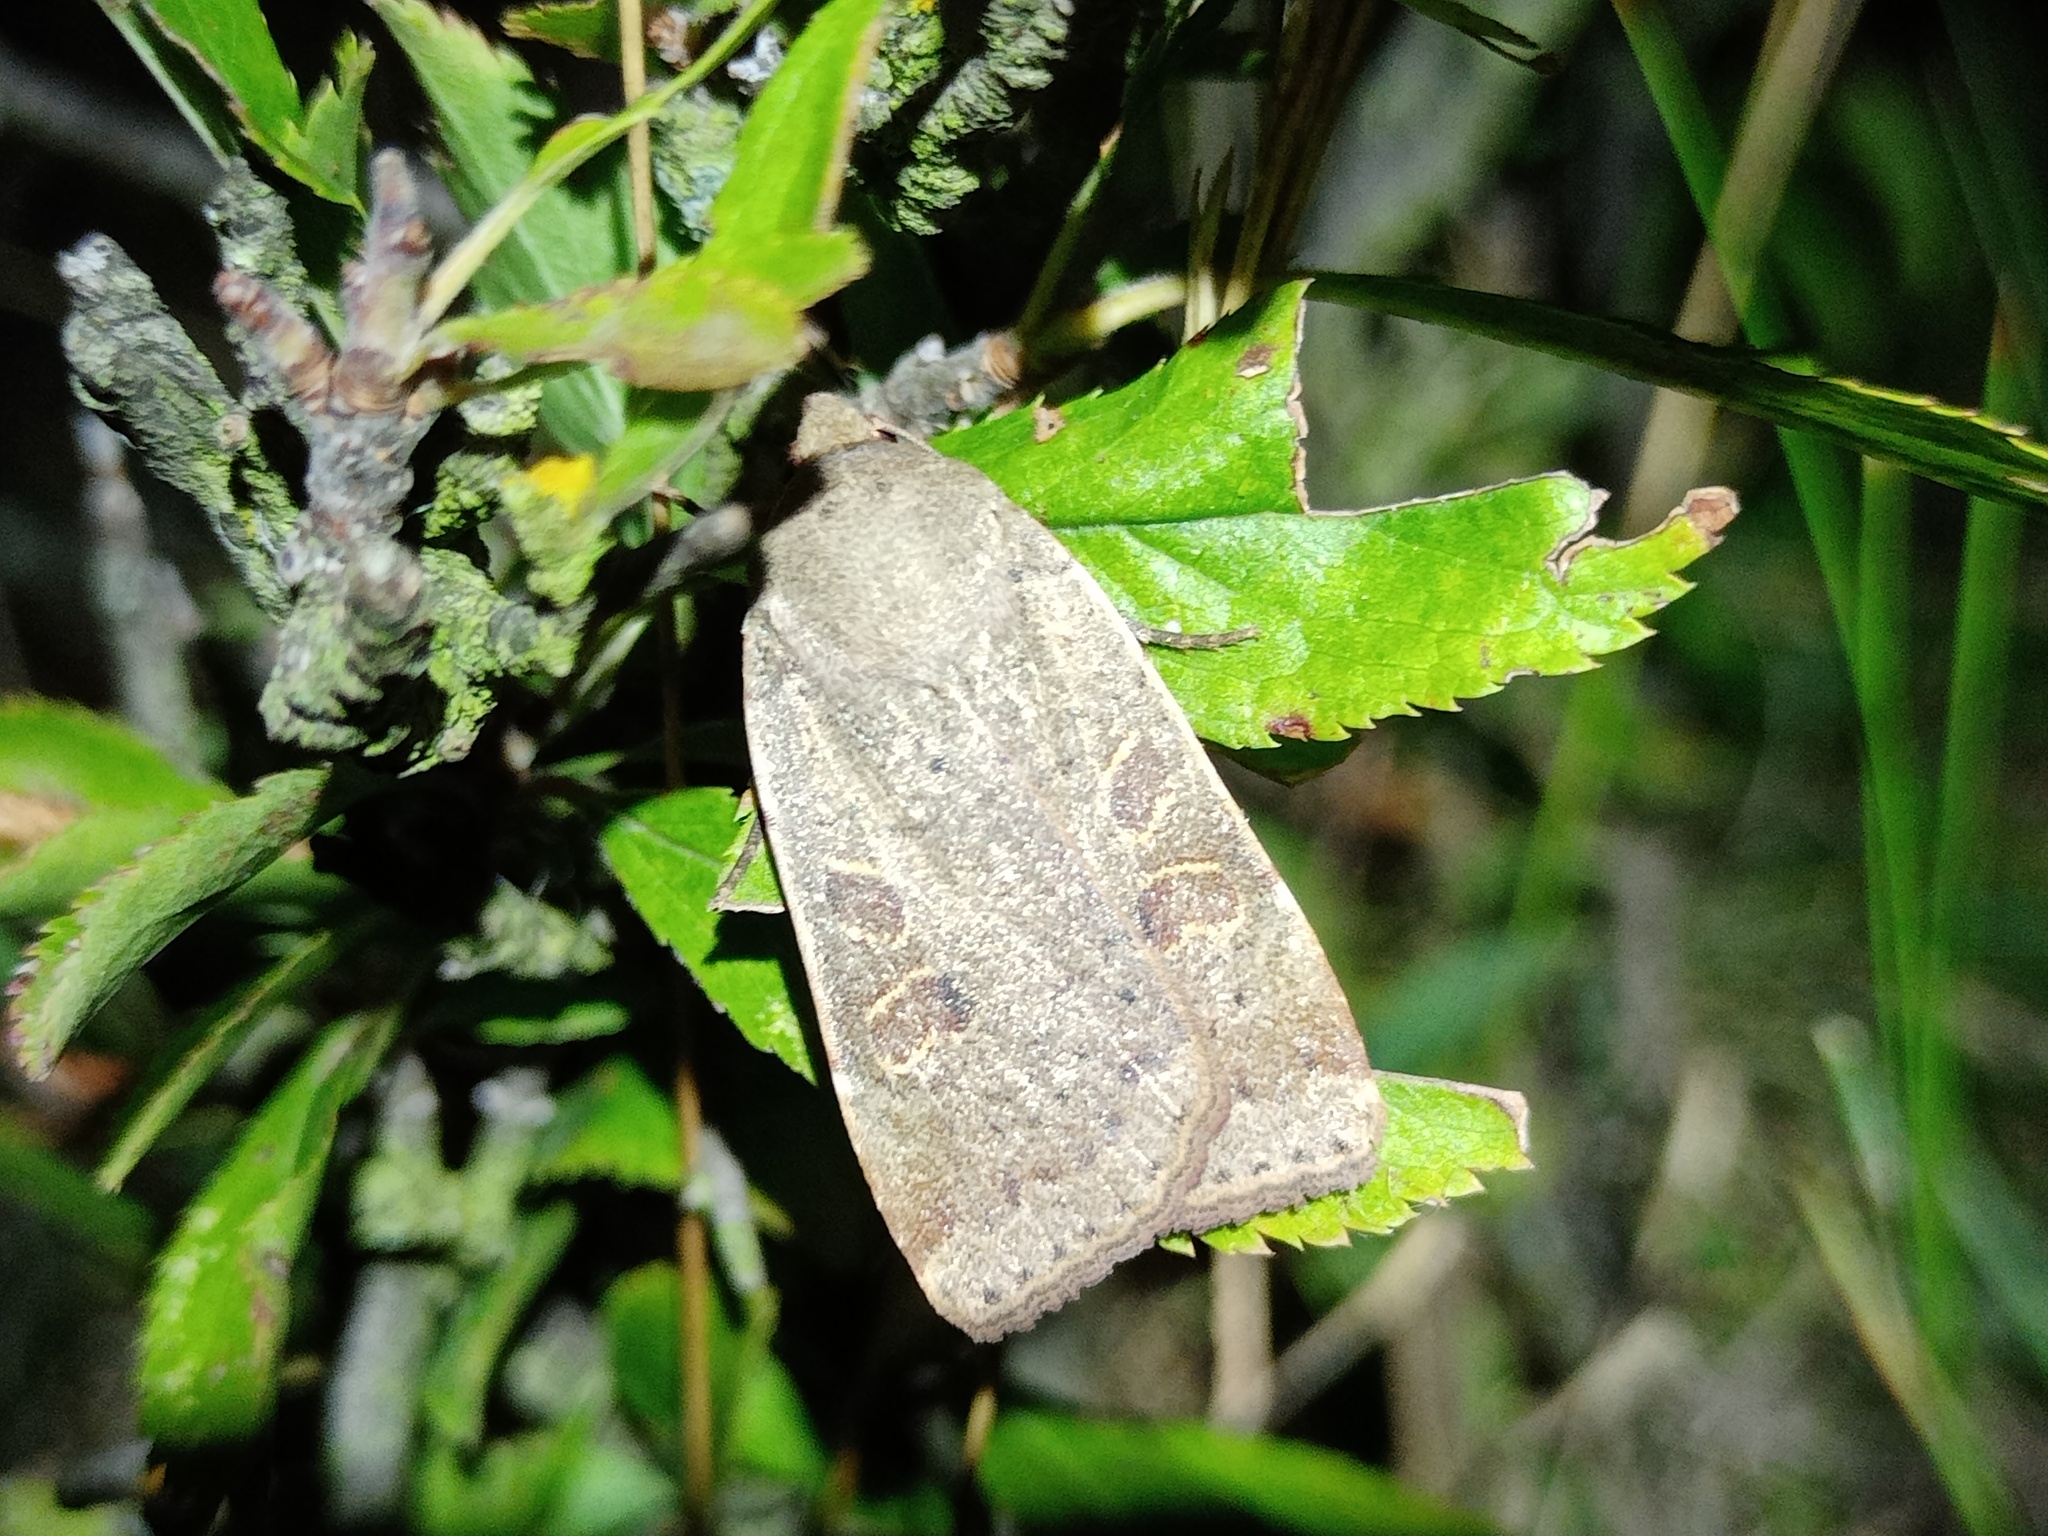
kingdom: Animalia
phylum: Arthropoda
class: Insecta
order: Lepidoptera
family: Noctuidae
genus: Noctua
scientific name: Noctua comes
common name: Lesser yellow underwing
